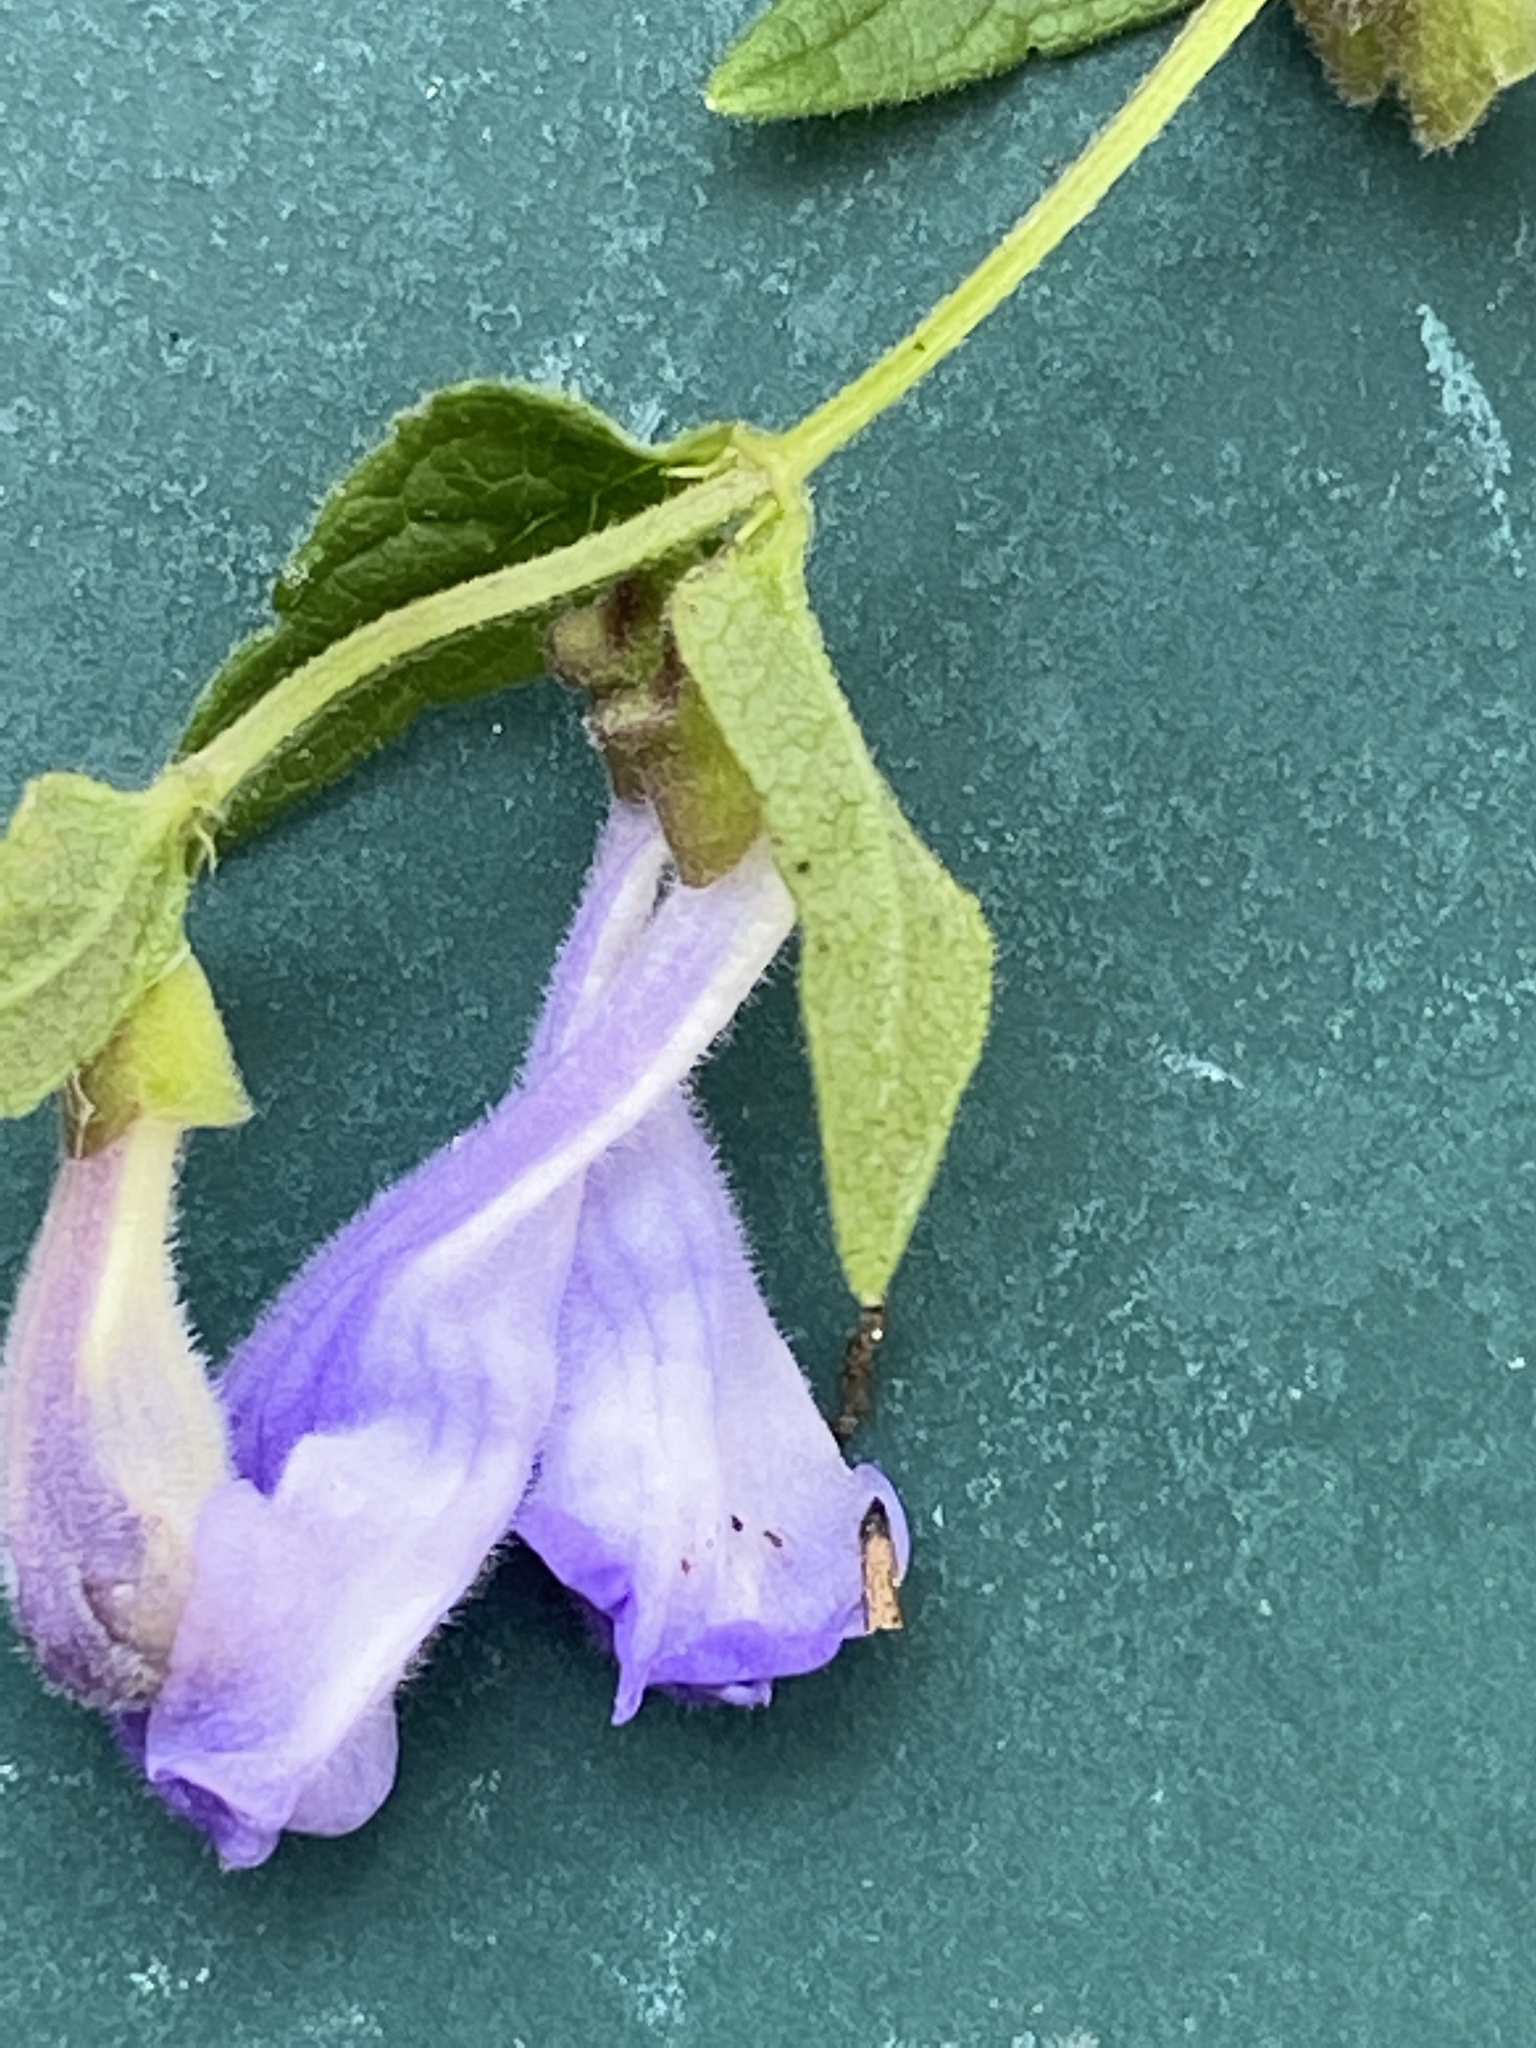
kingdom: Plantae
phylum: Tracheophyta
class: Magnoliopsida
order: Lamiales
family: Lamiaceae
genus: Scutellaria
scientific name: Scutellaria galericulata
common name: Skullcap
